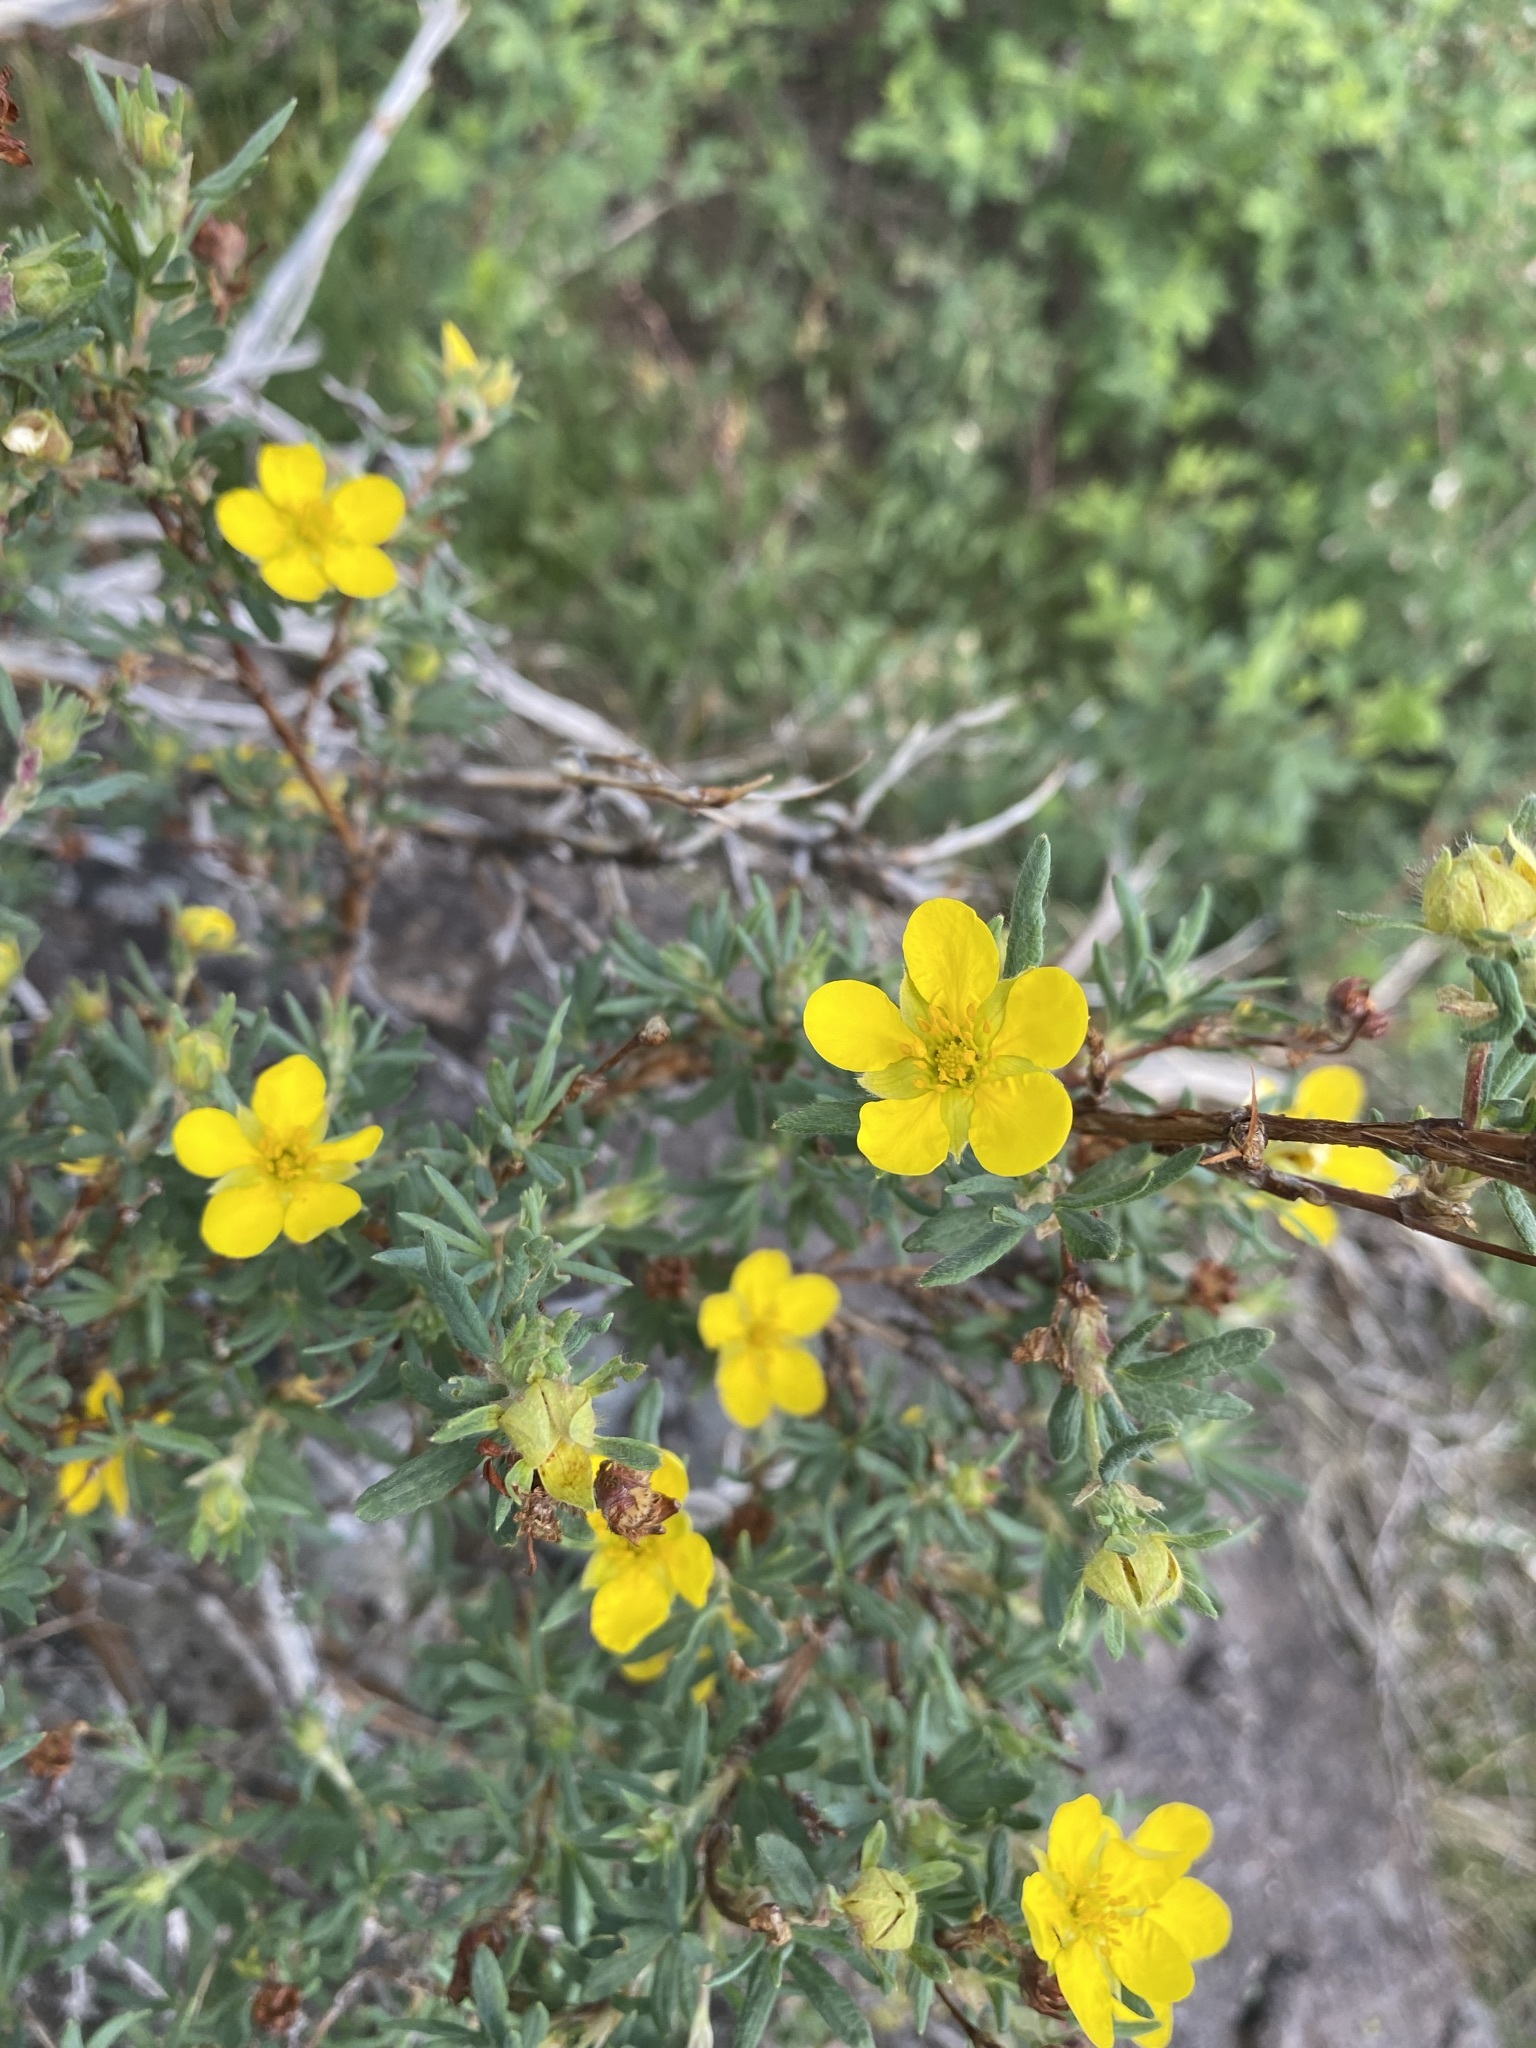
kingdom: Plantae
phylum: Tracheophyta
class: Magnoliopsida
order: Rosales
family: Rosaceae
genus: Dasiphora
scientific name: Dasiphora fruticosa
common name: Shrubby cinquefoil
